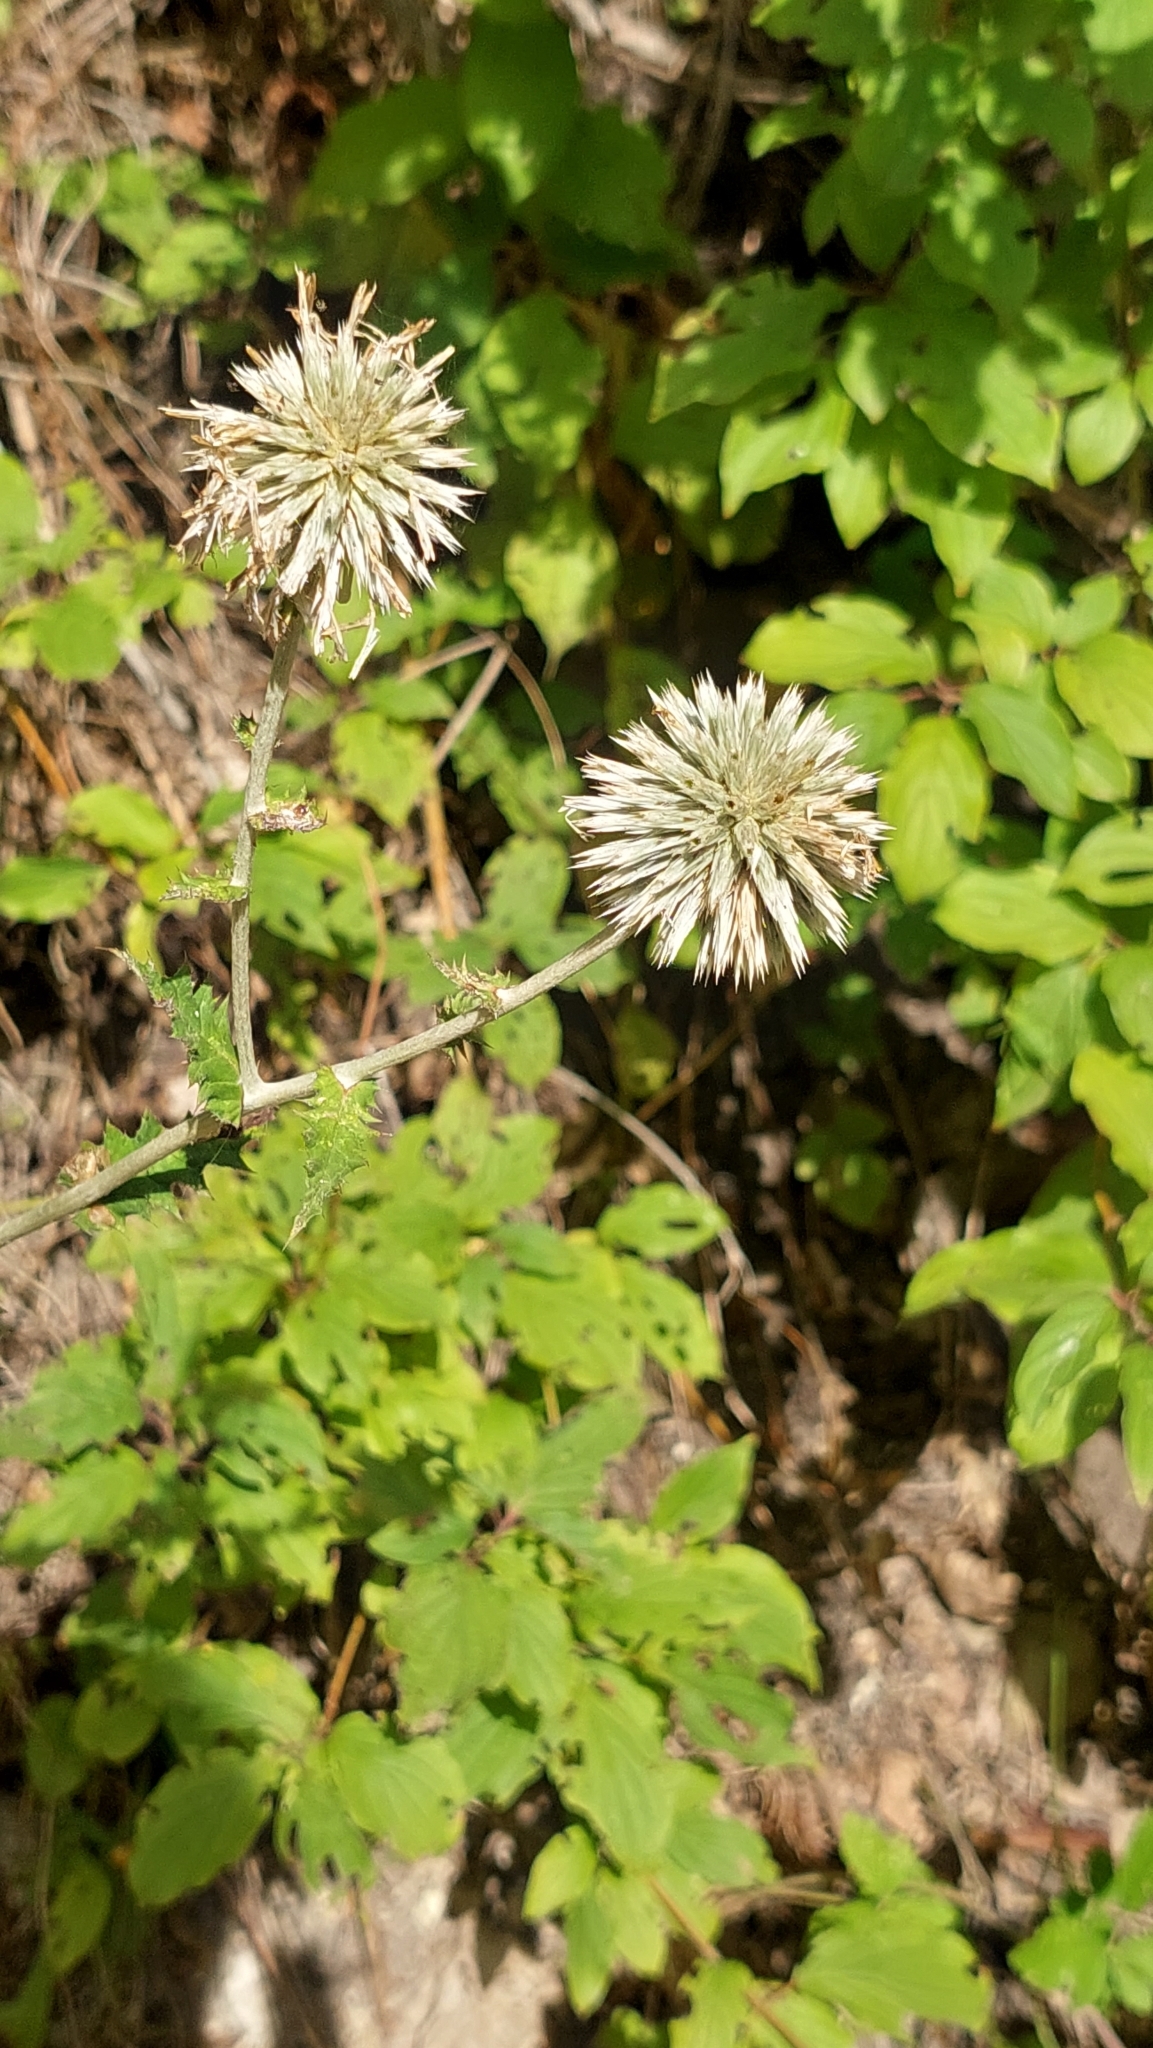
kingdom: Plantae
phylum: Tracheophyta
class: Magnoliopsida
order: Asterales
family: Asteraceae
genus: Echinops
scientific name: Echinops sphaerocephalus
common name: Glandular globe-thistle
